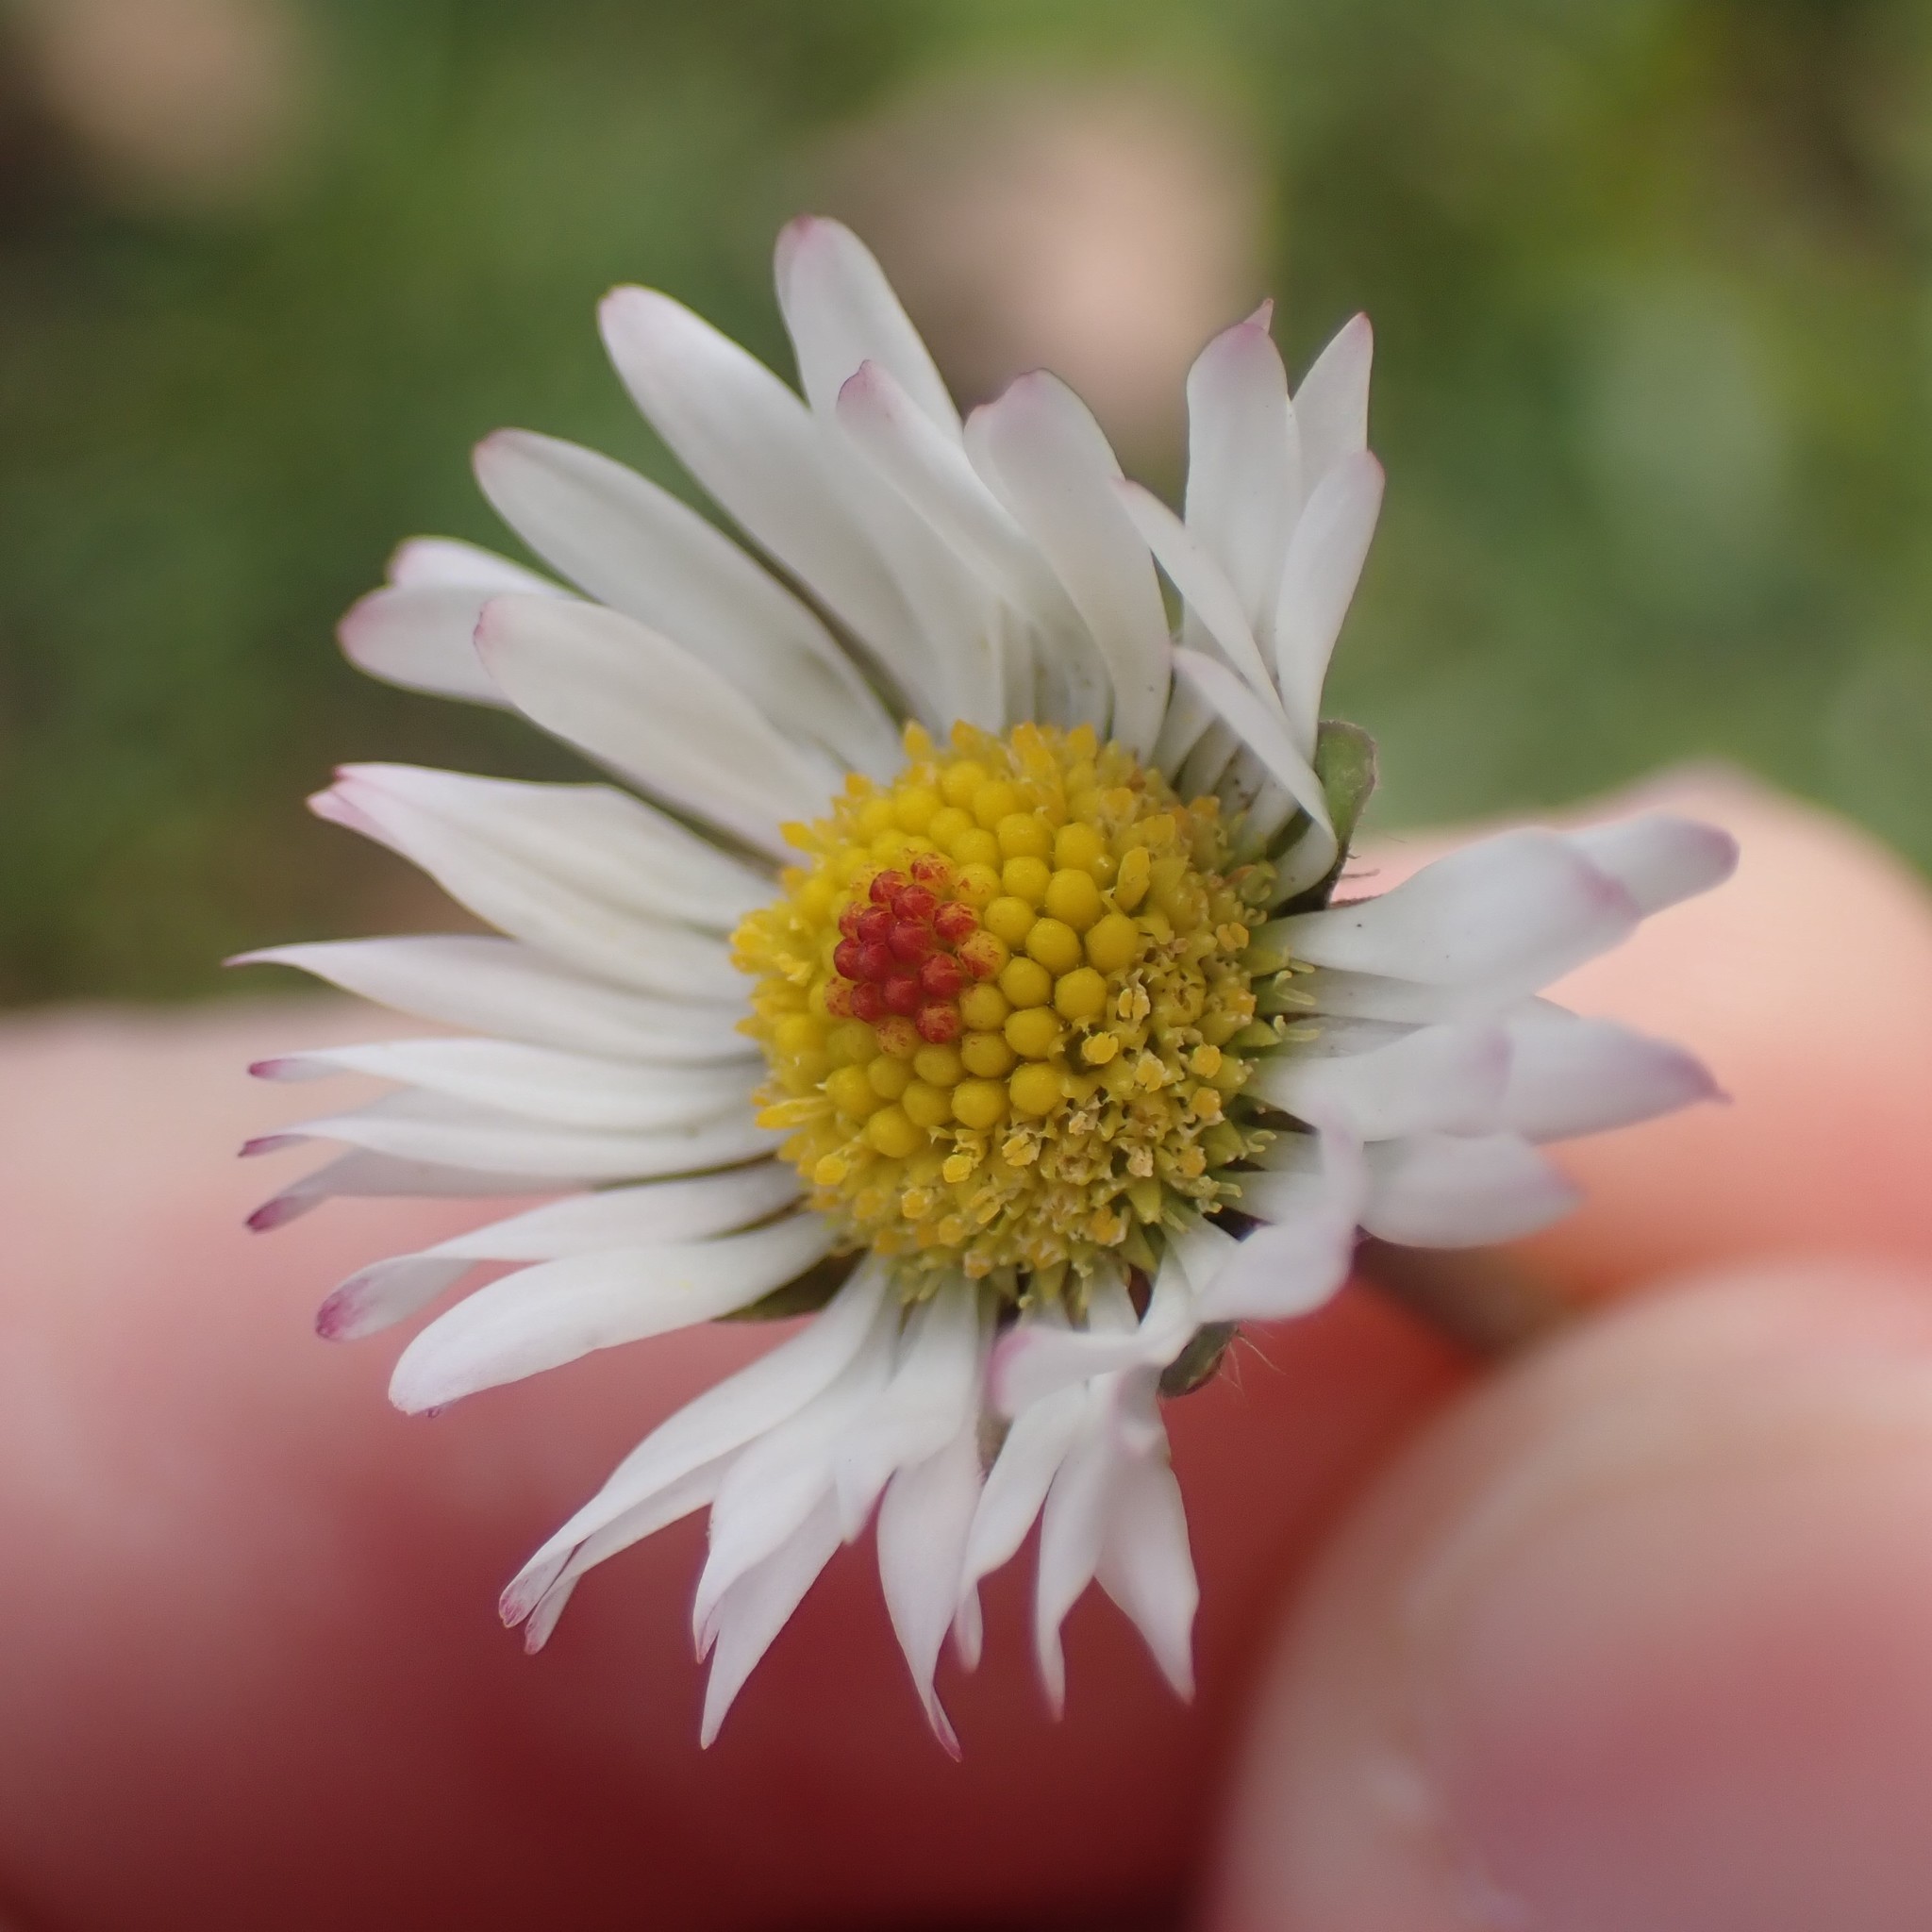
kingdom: Plantae
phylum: Tracheophyta
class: Magnoliopsida
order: Asterales
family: Asteraceae
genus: Bellis
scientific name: Bellis perennis
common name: Lawndaisy
